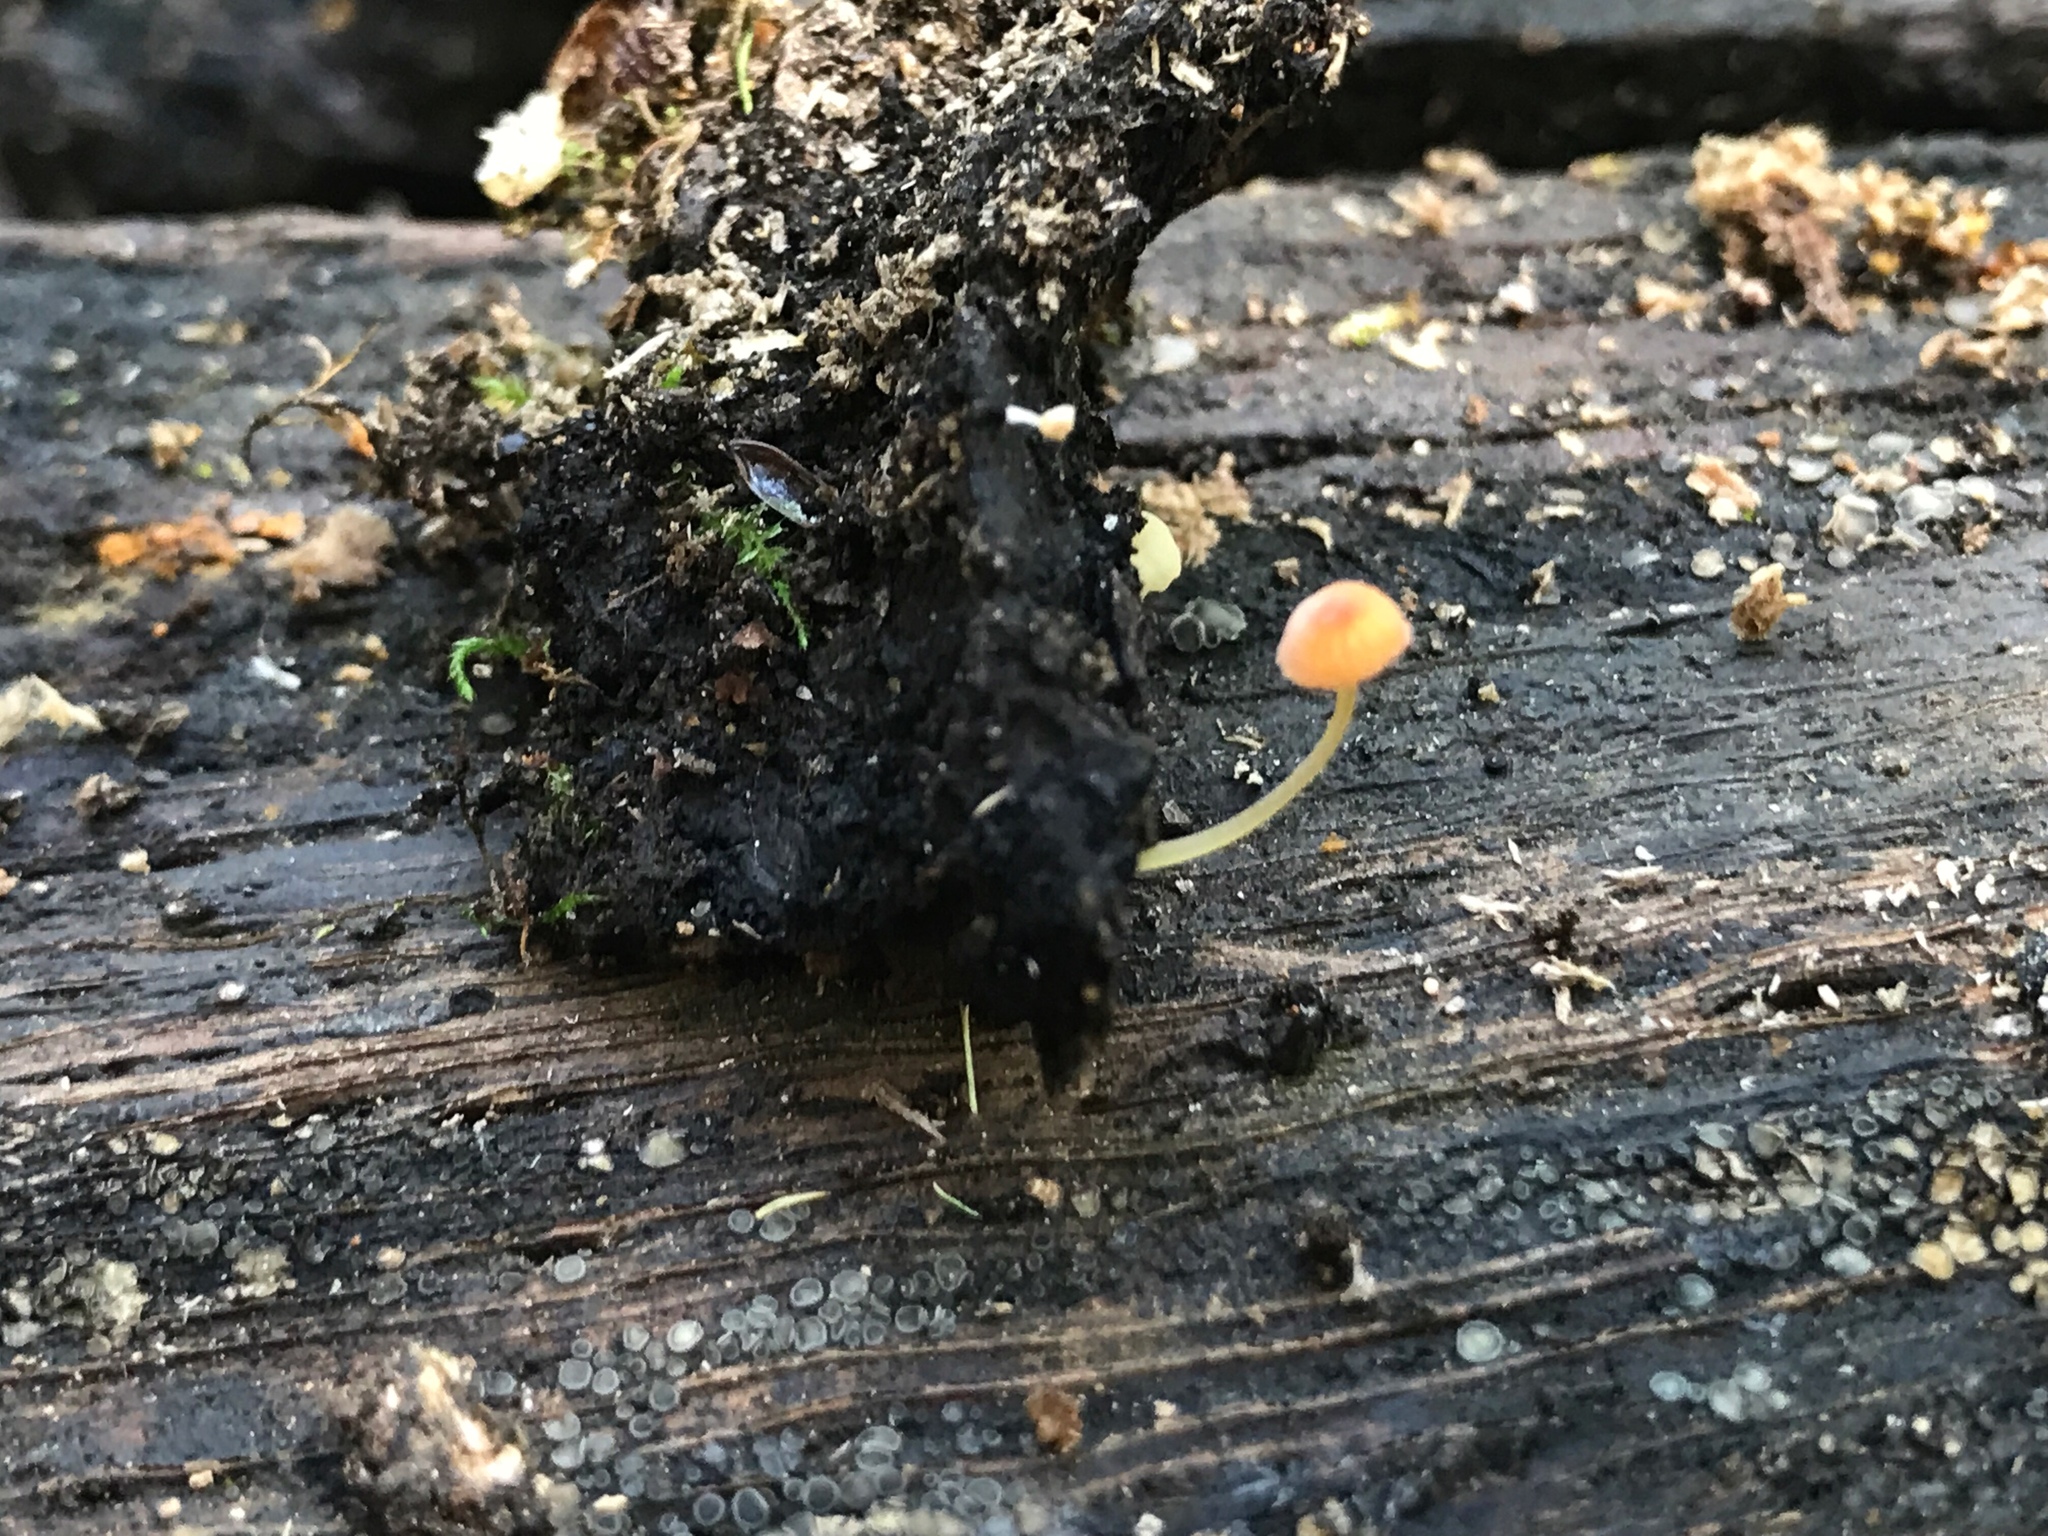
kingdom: Fungi
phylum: Basidiomycota
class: Agaricomycetes
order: Agaricales
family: Mycenaceae
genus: Mycena
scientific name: Mycena acicula
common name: Orange bonnet
